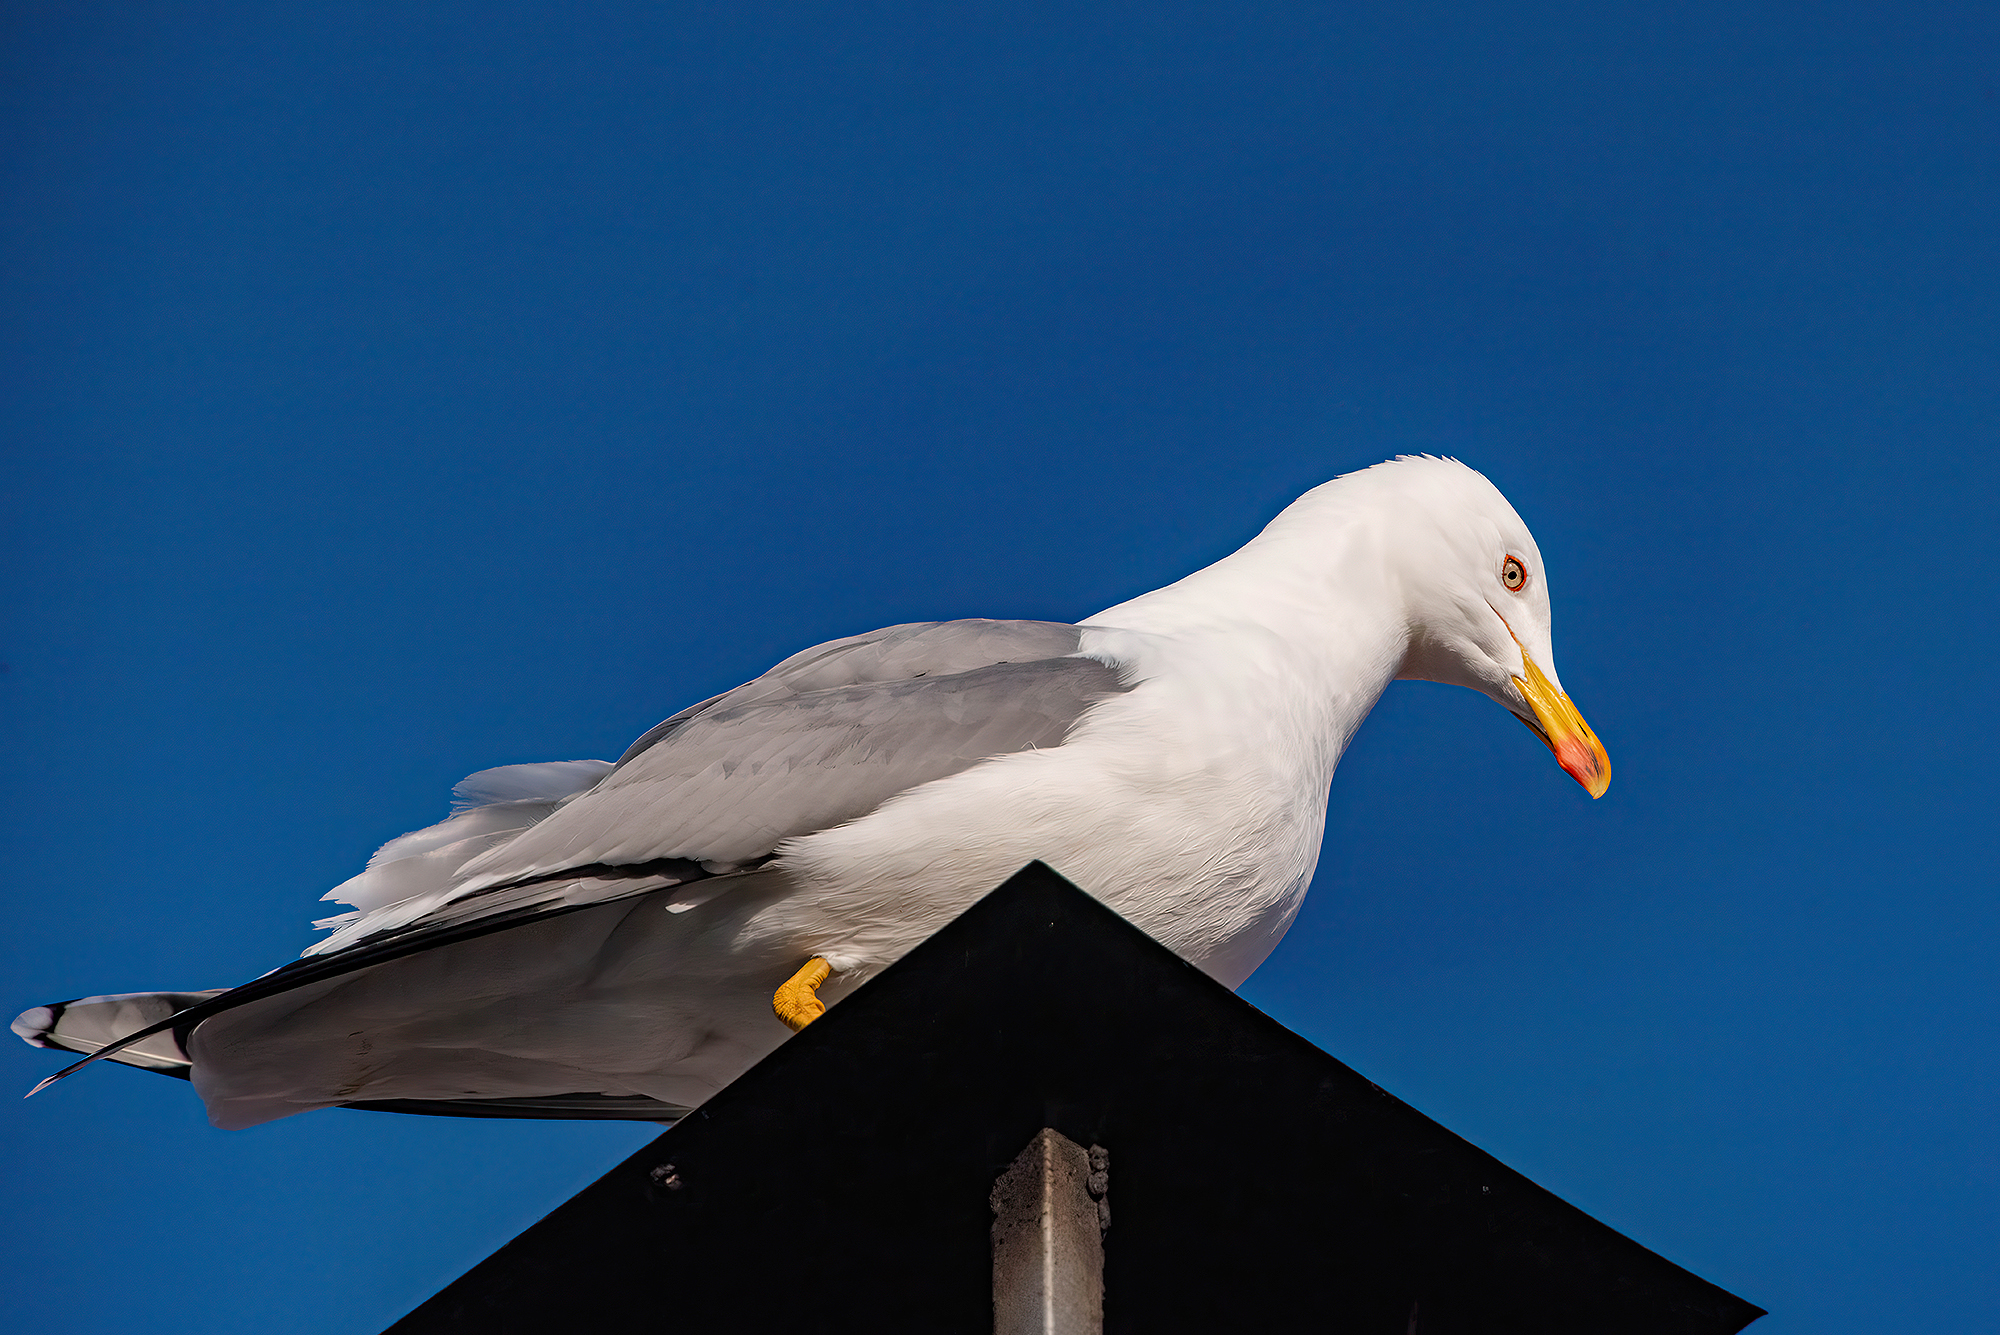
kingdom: Animalia
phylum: Chordata
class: Aves
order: Charadriiformes
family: Laridae
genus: Larus
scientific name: Larus michahellis
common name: Yellow-legged gull
